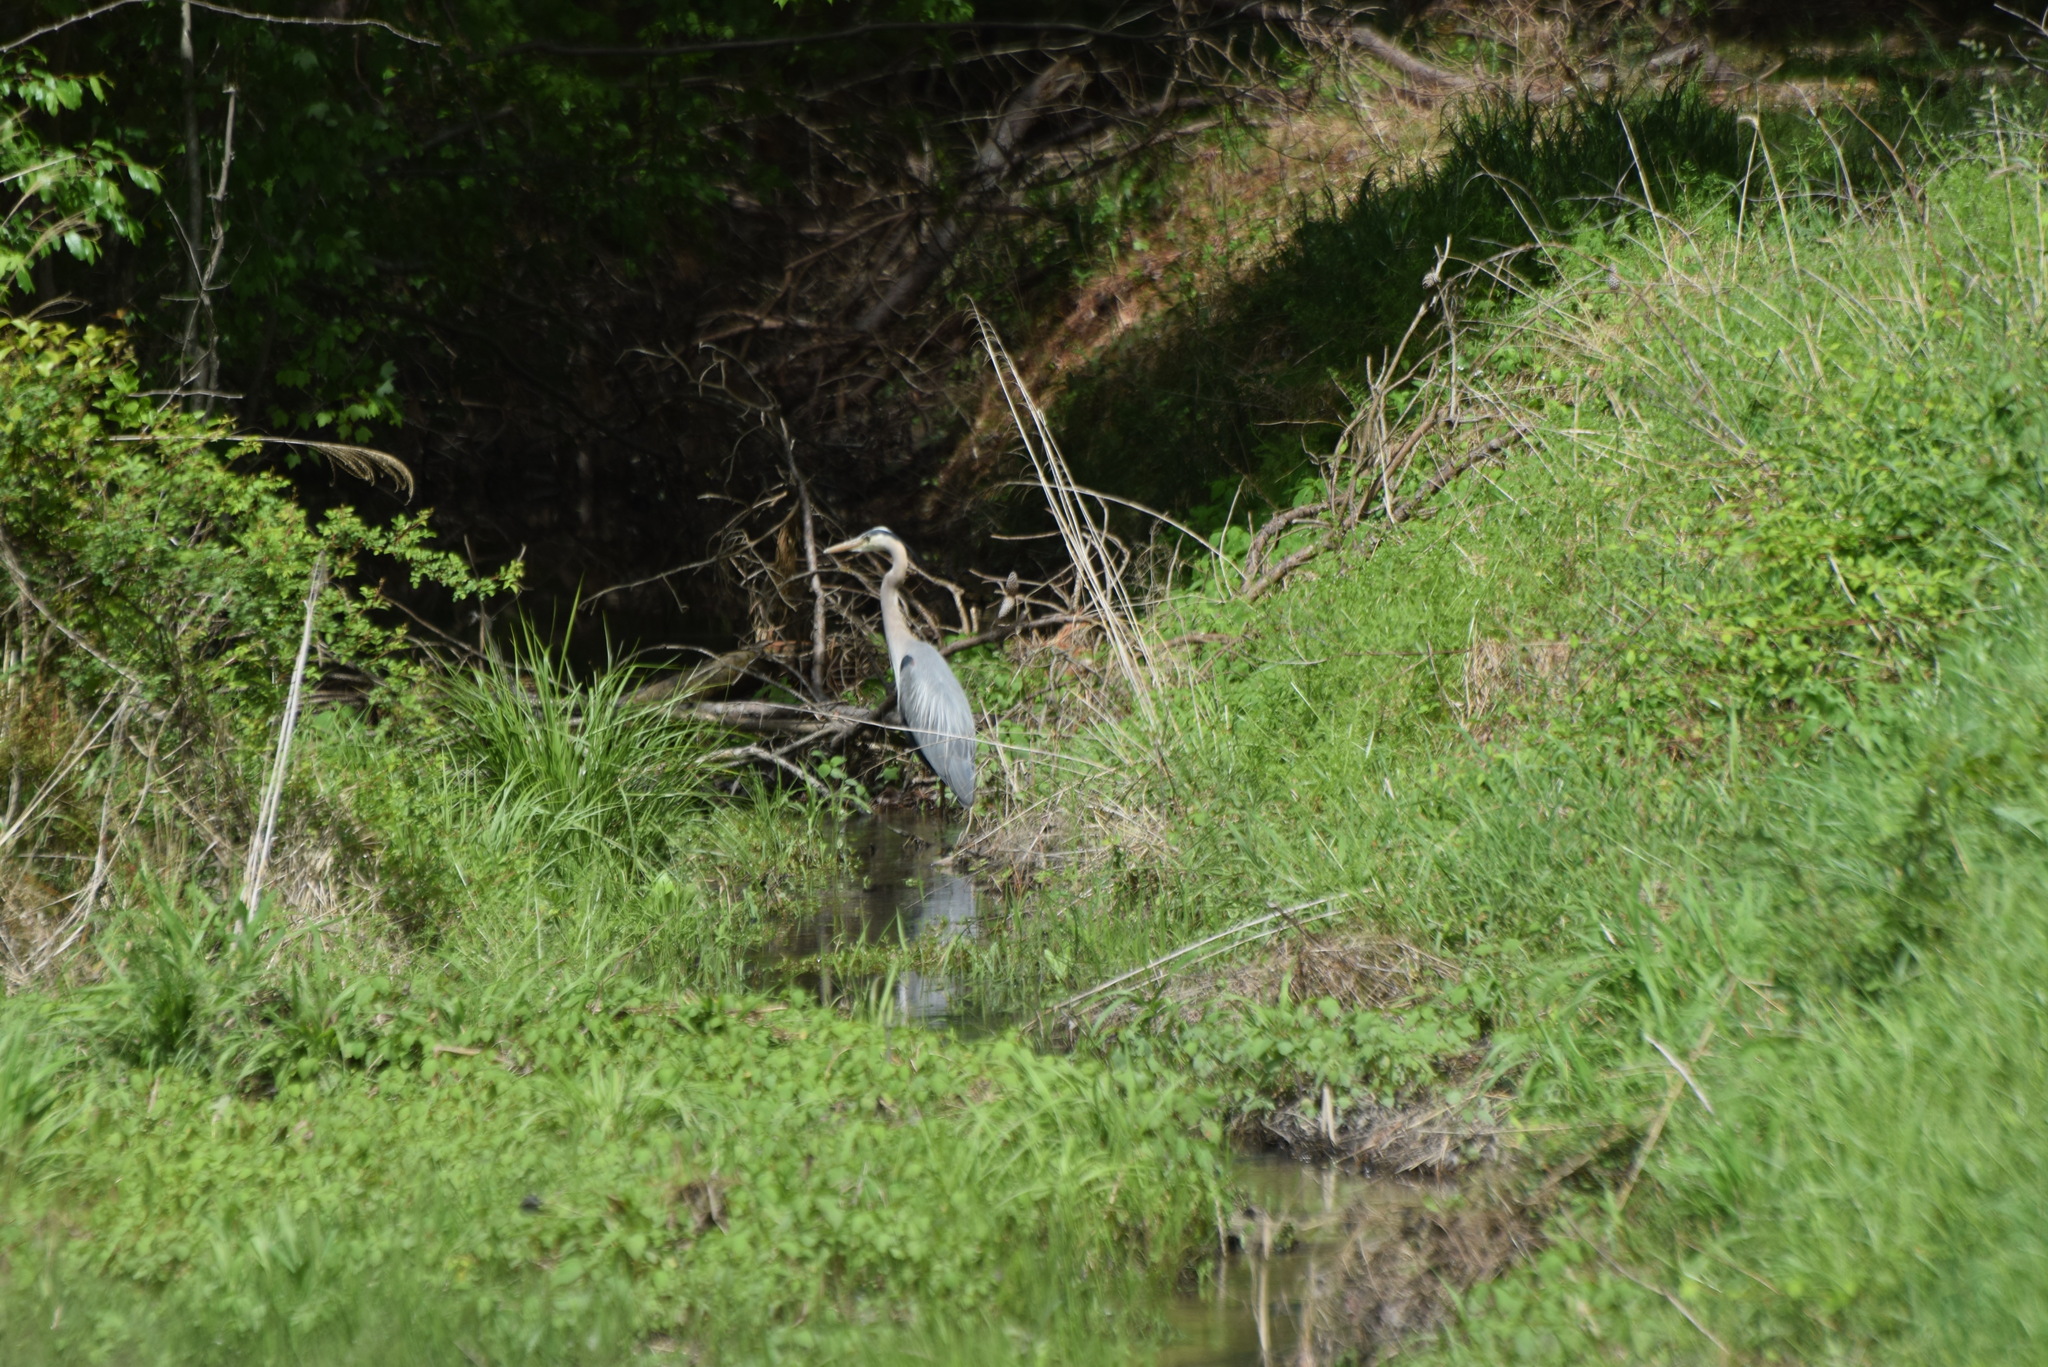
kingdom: Animalia
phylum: Chordata
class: Aves
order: Pelecaniformes
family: Ardeidae
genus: Ardea
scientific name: Ardea herodias
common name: Great blue heron
